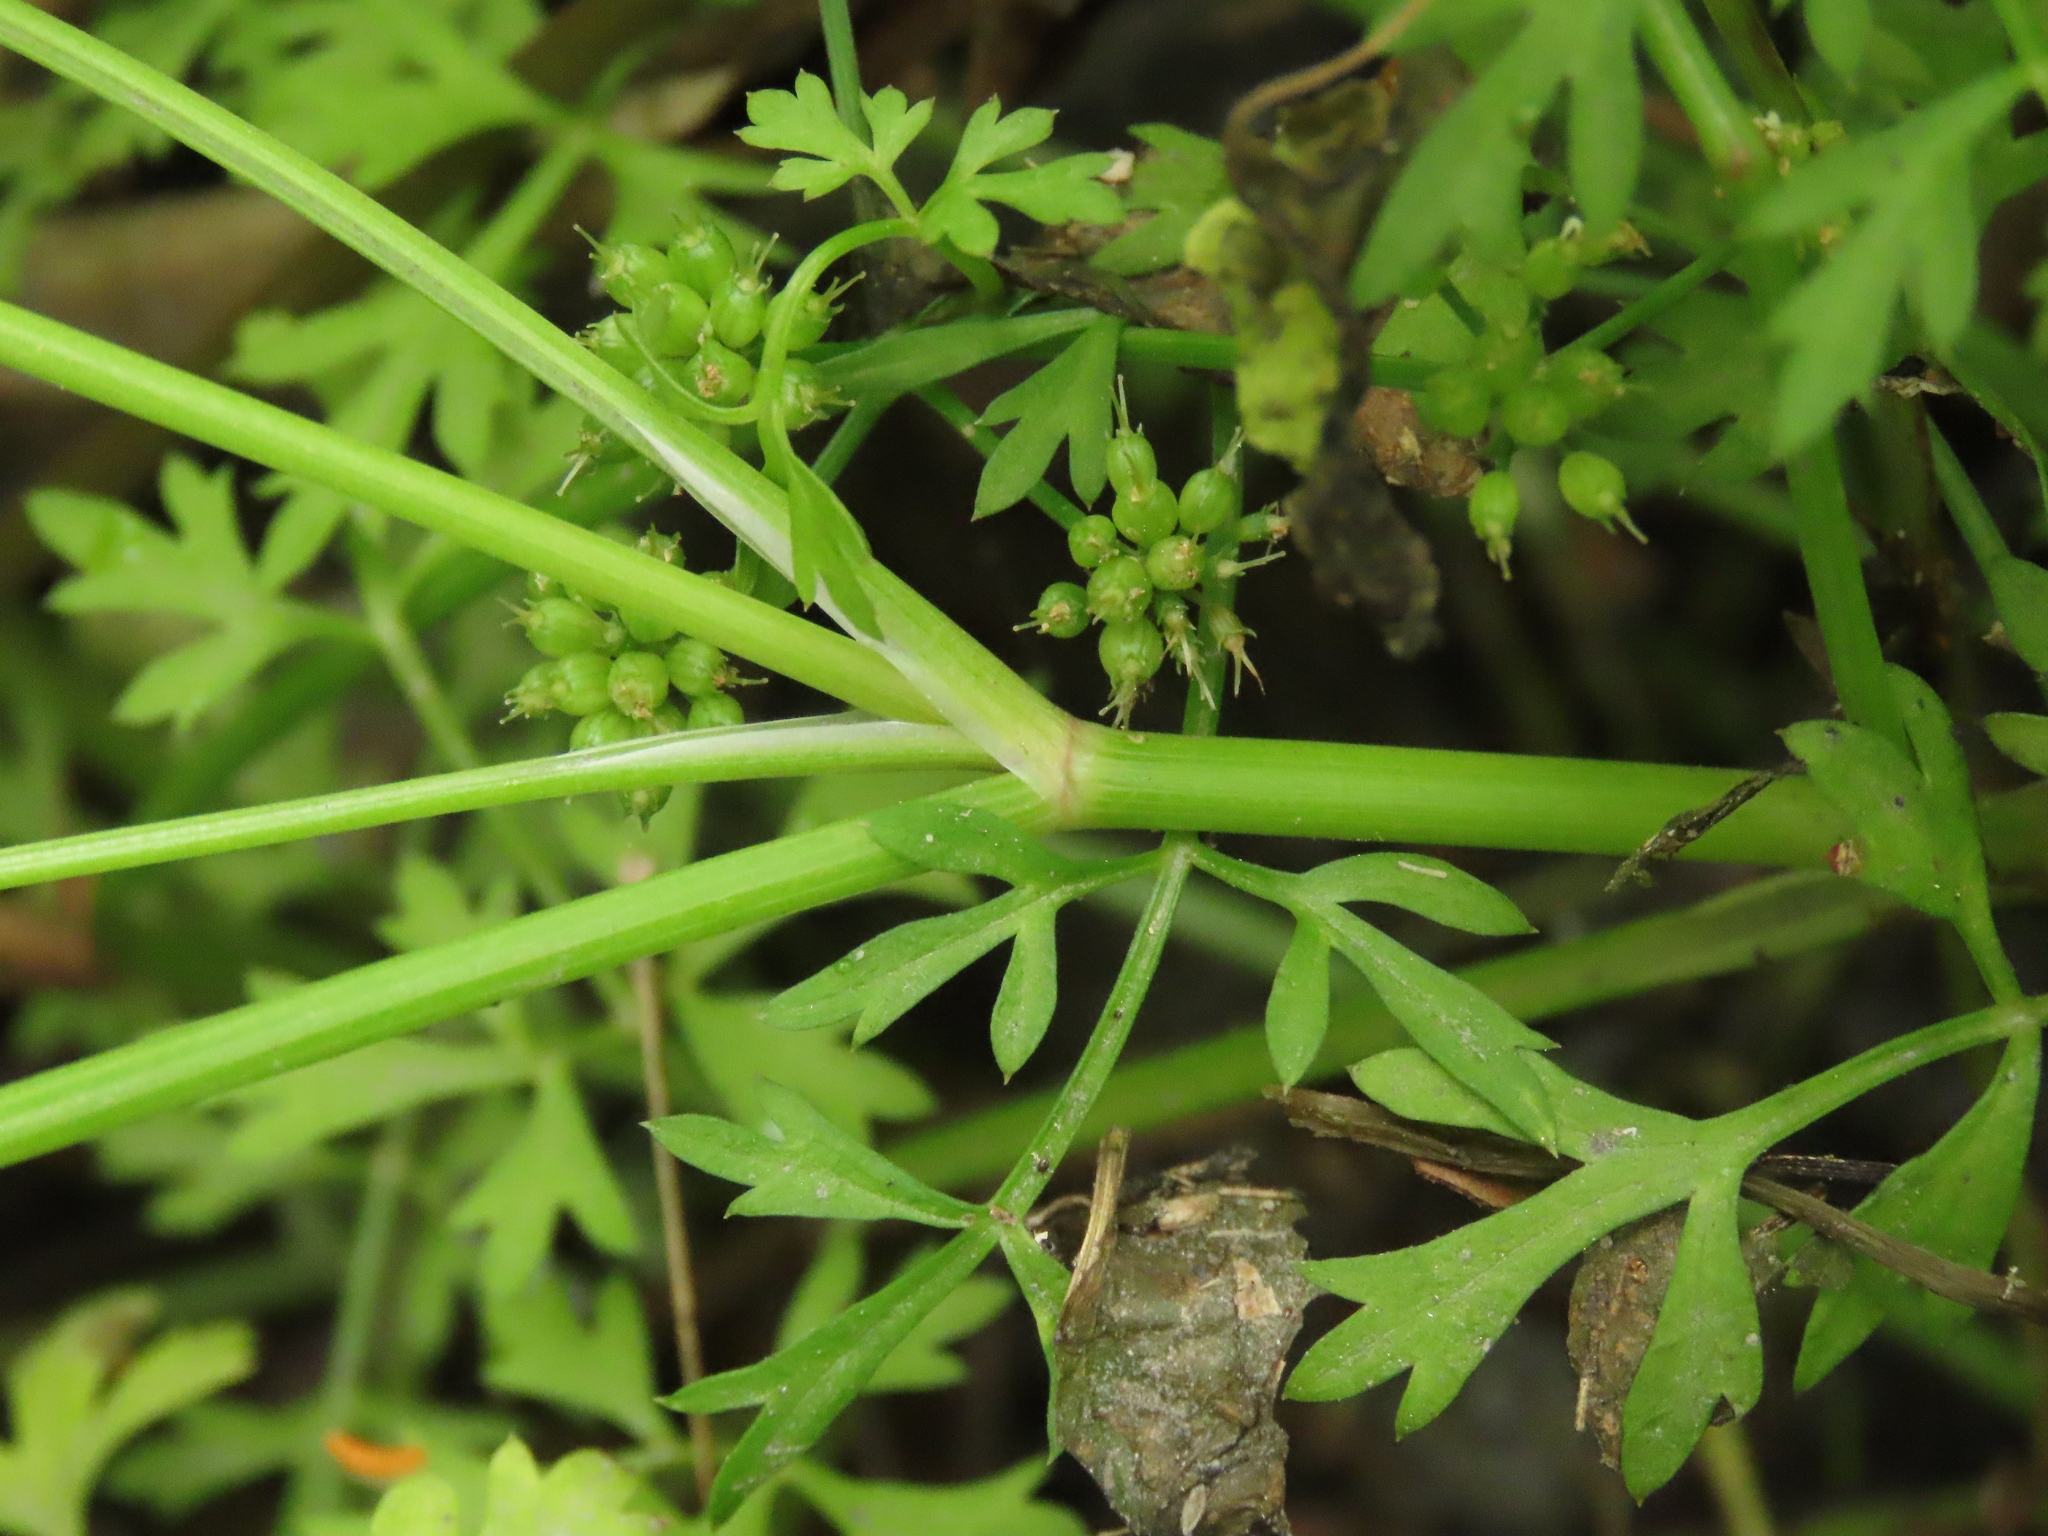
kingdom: Plantae
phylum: Tracheophyta
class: Magnoliopsida
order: Apiales
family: Apiaceae
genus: Oenanthe
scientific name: Oenanthe javanica
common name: Java water-dropwort
